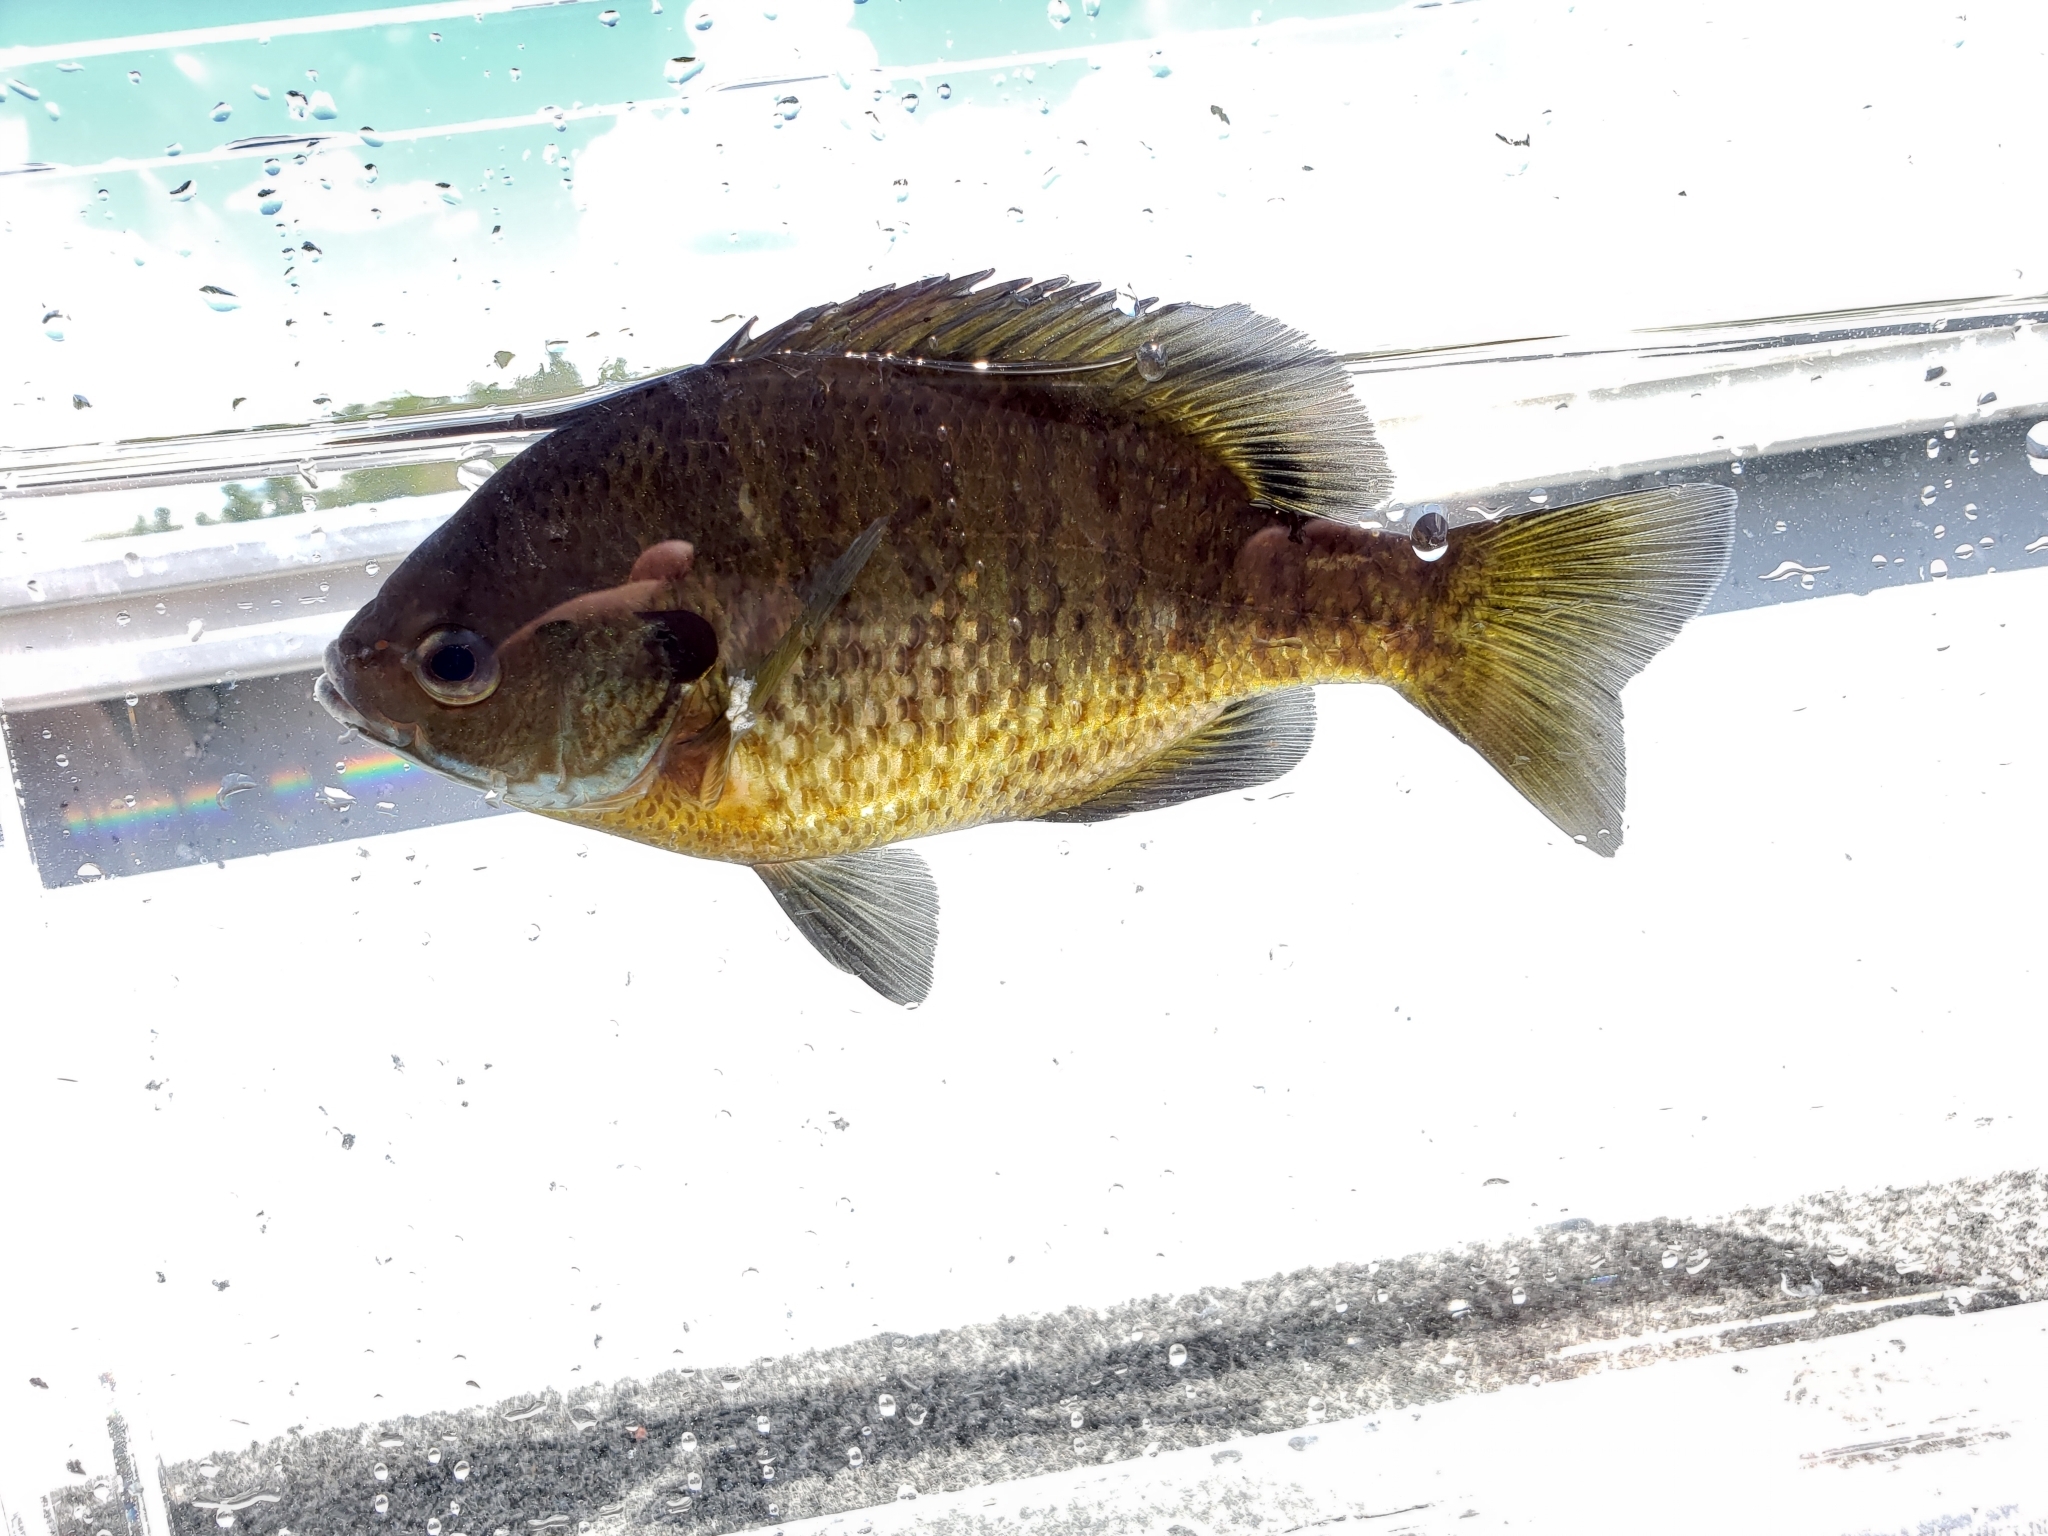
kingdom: Animalia
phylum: Chordata
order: Perciformes
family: Centrarchidae
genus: Lepomis
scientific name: Lepomis macrochirus
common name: Bluegill
